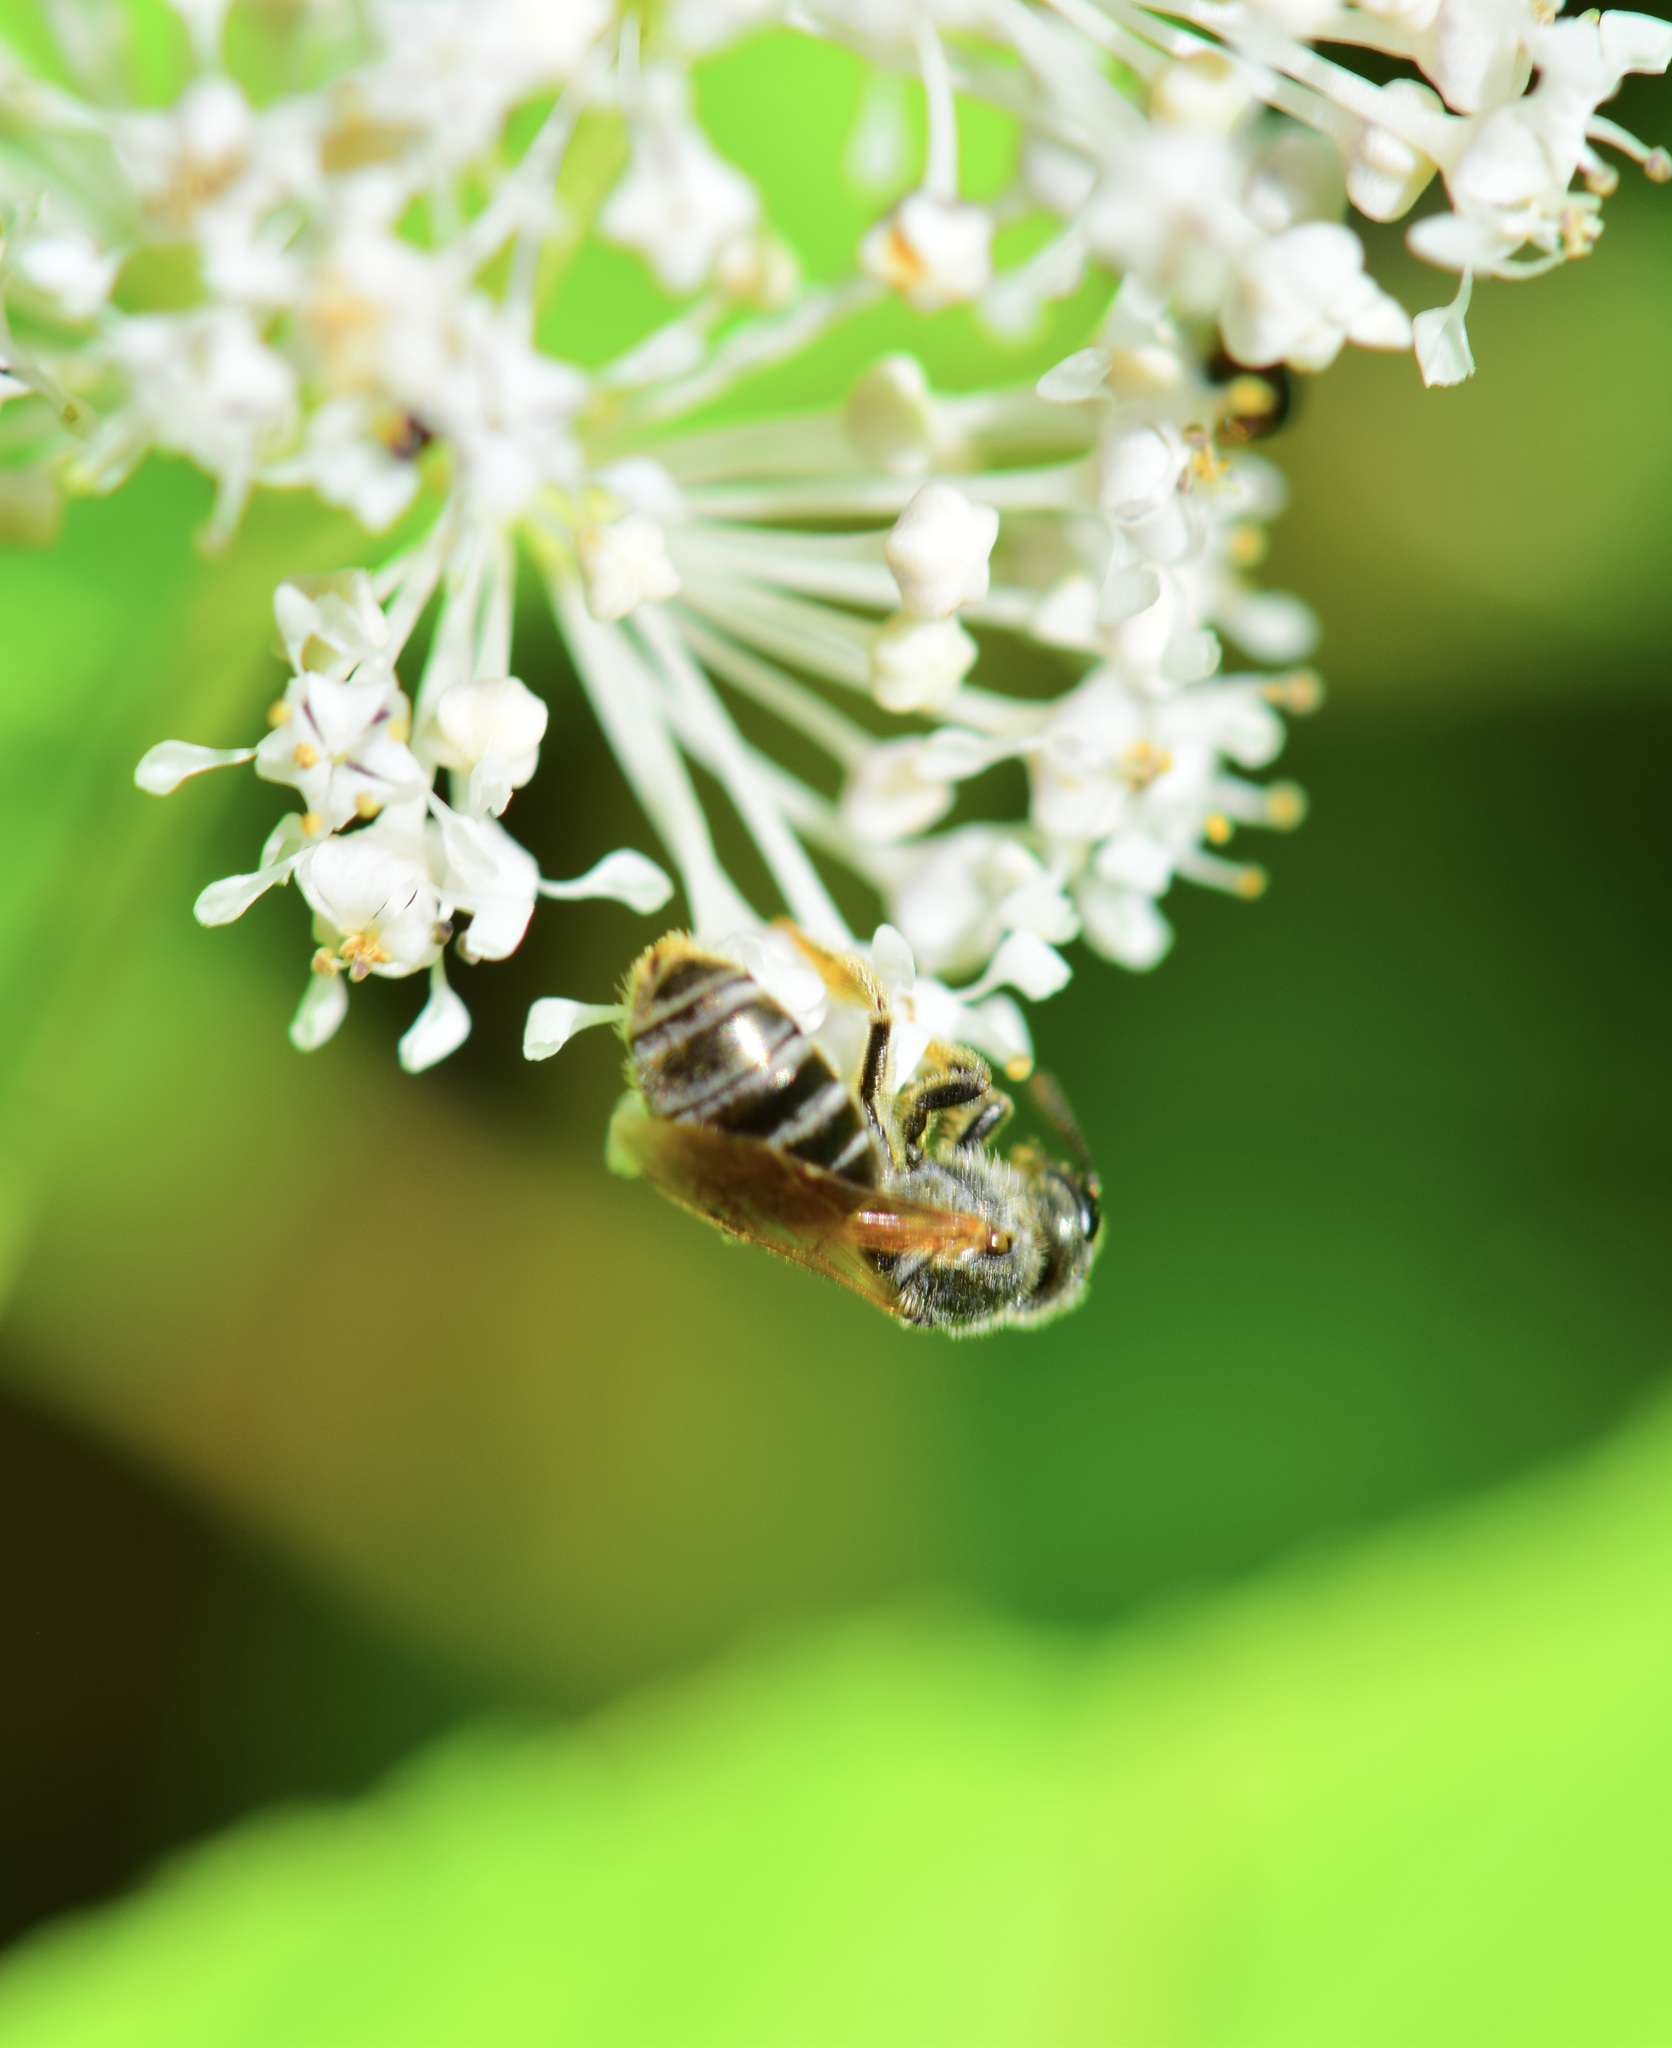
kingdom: Animalia
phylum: Arthropoda
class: Insecta
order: Hymenoptera
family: Halictidae
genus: Halictus
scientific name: Halictus confusus
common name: Southern bronze furrow bee
